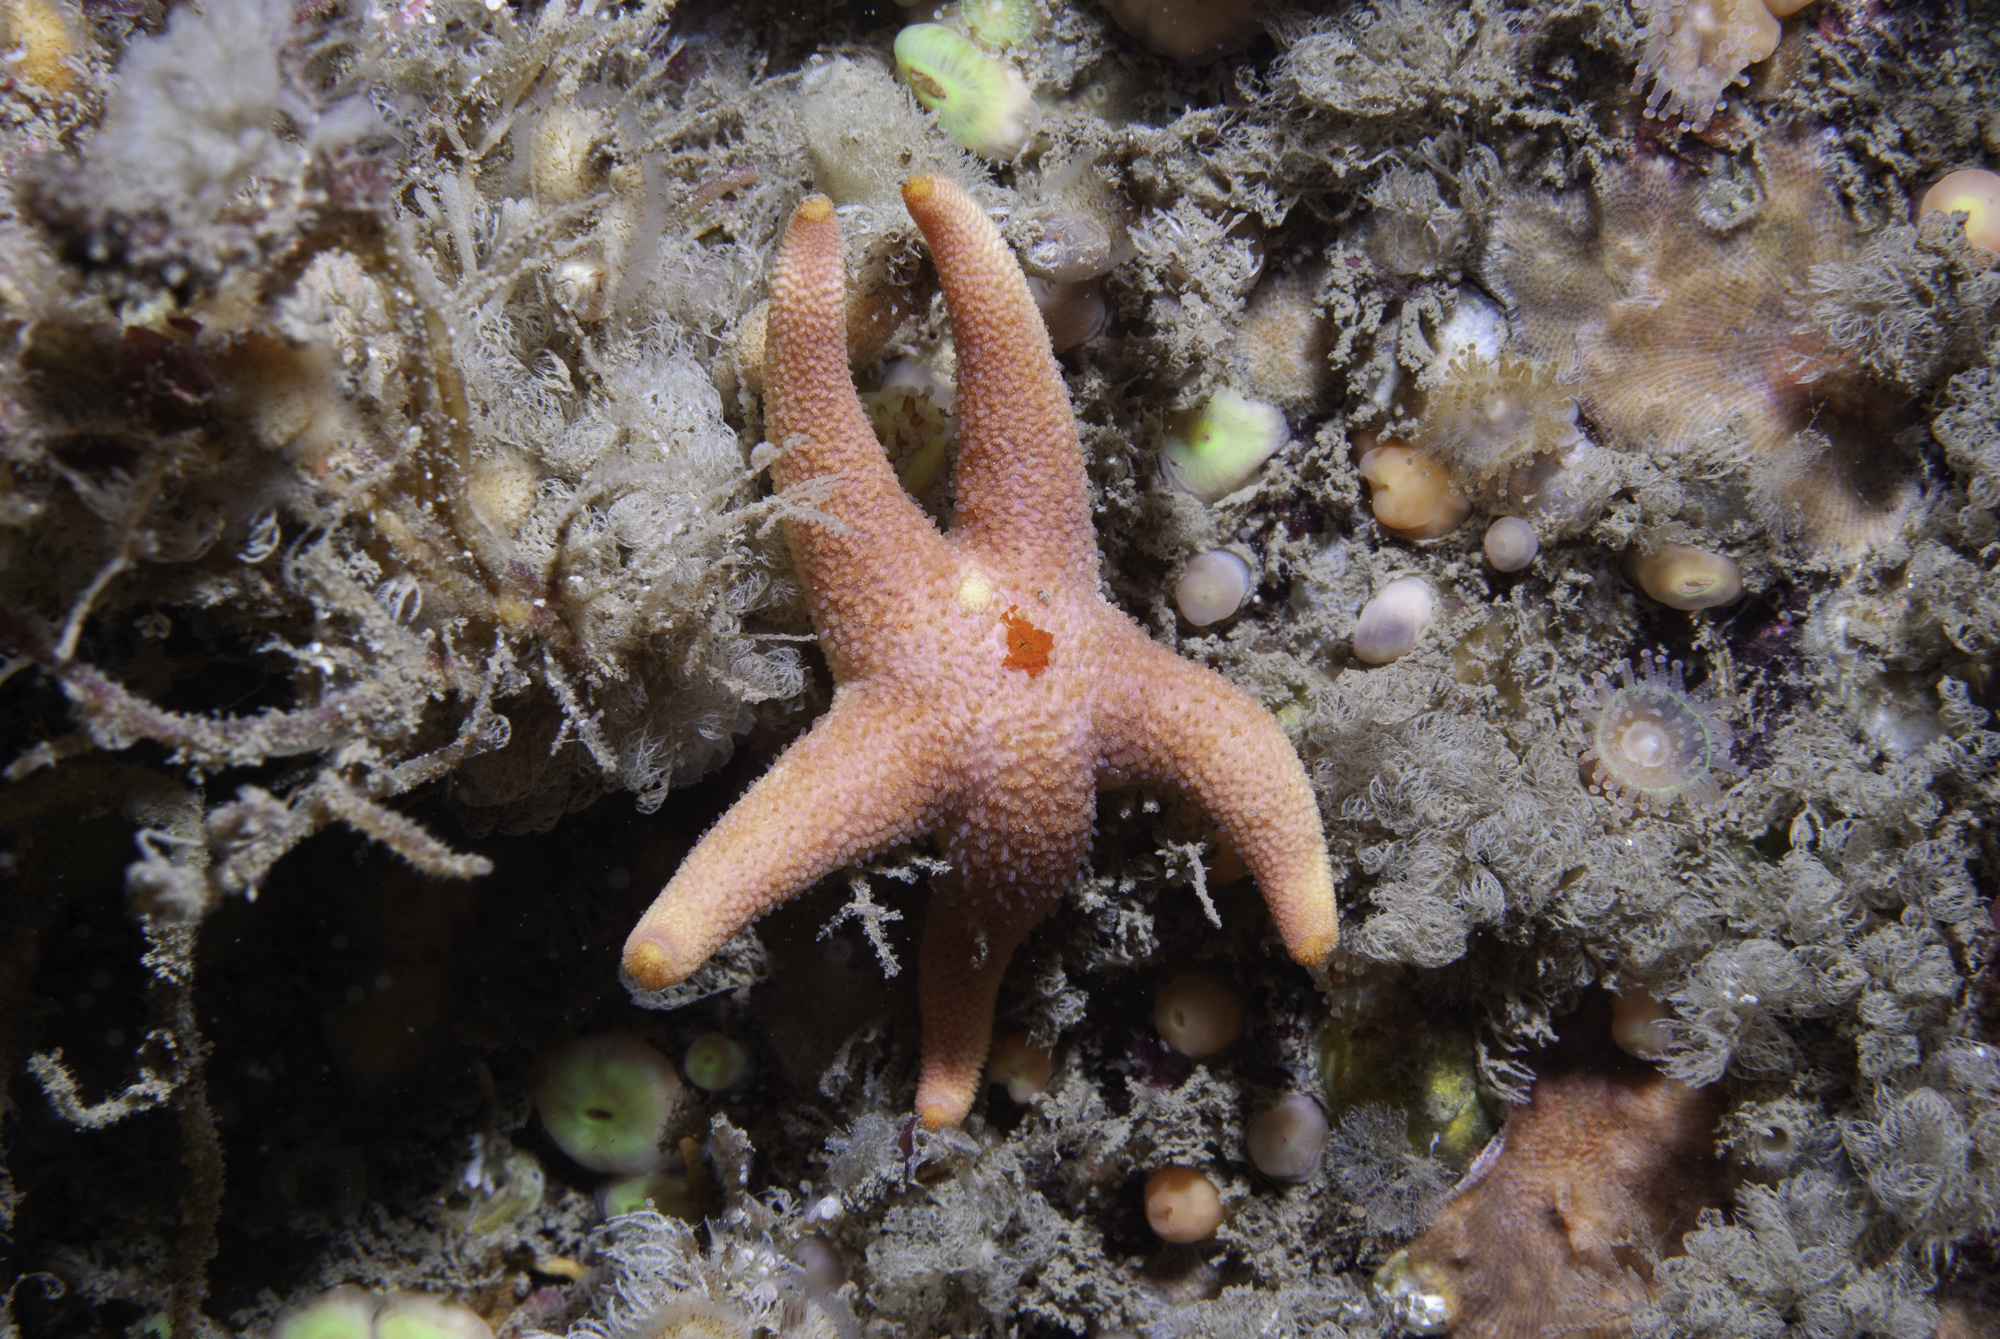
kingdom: Animalia
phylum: Echinodermata
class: Asteroidea
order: Spinulosida
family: Echinasteridae
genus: Henricia
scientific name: Henricia oculata
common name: Bloody henry starfish
